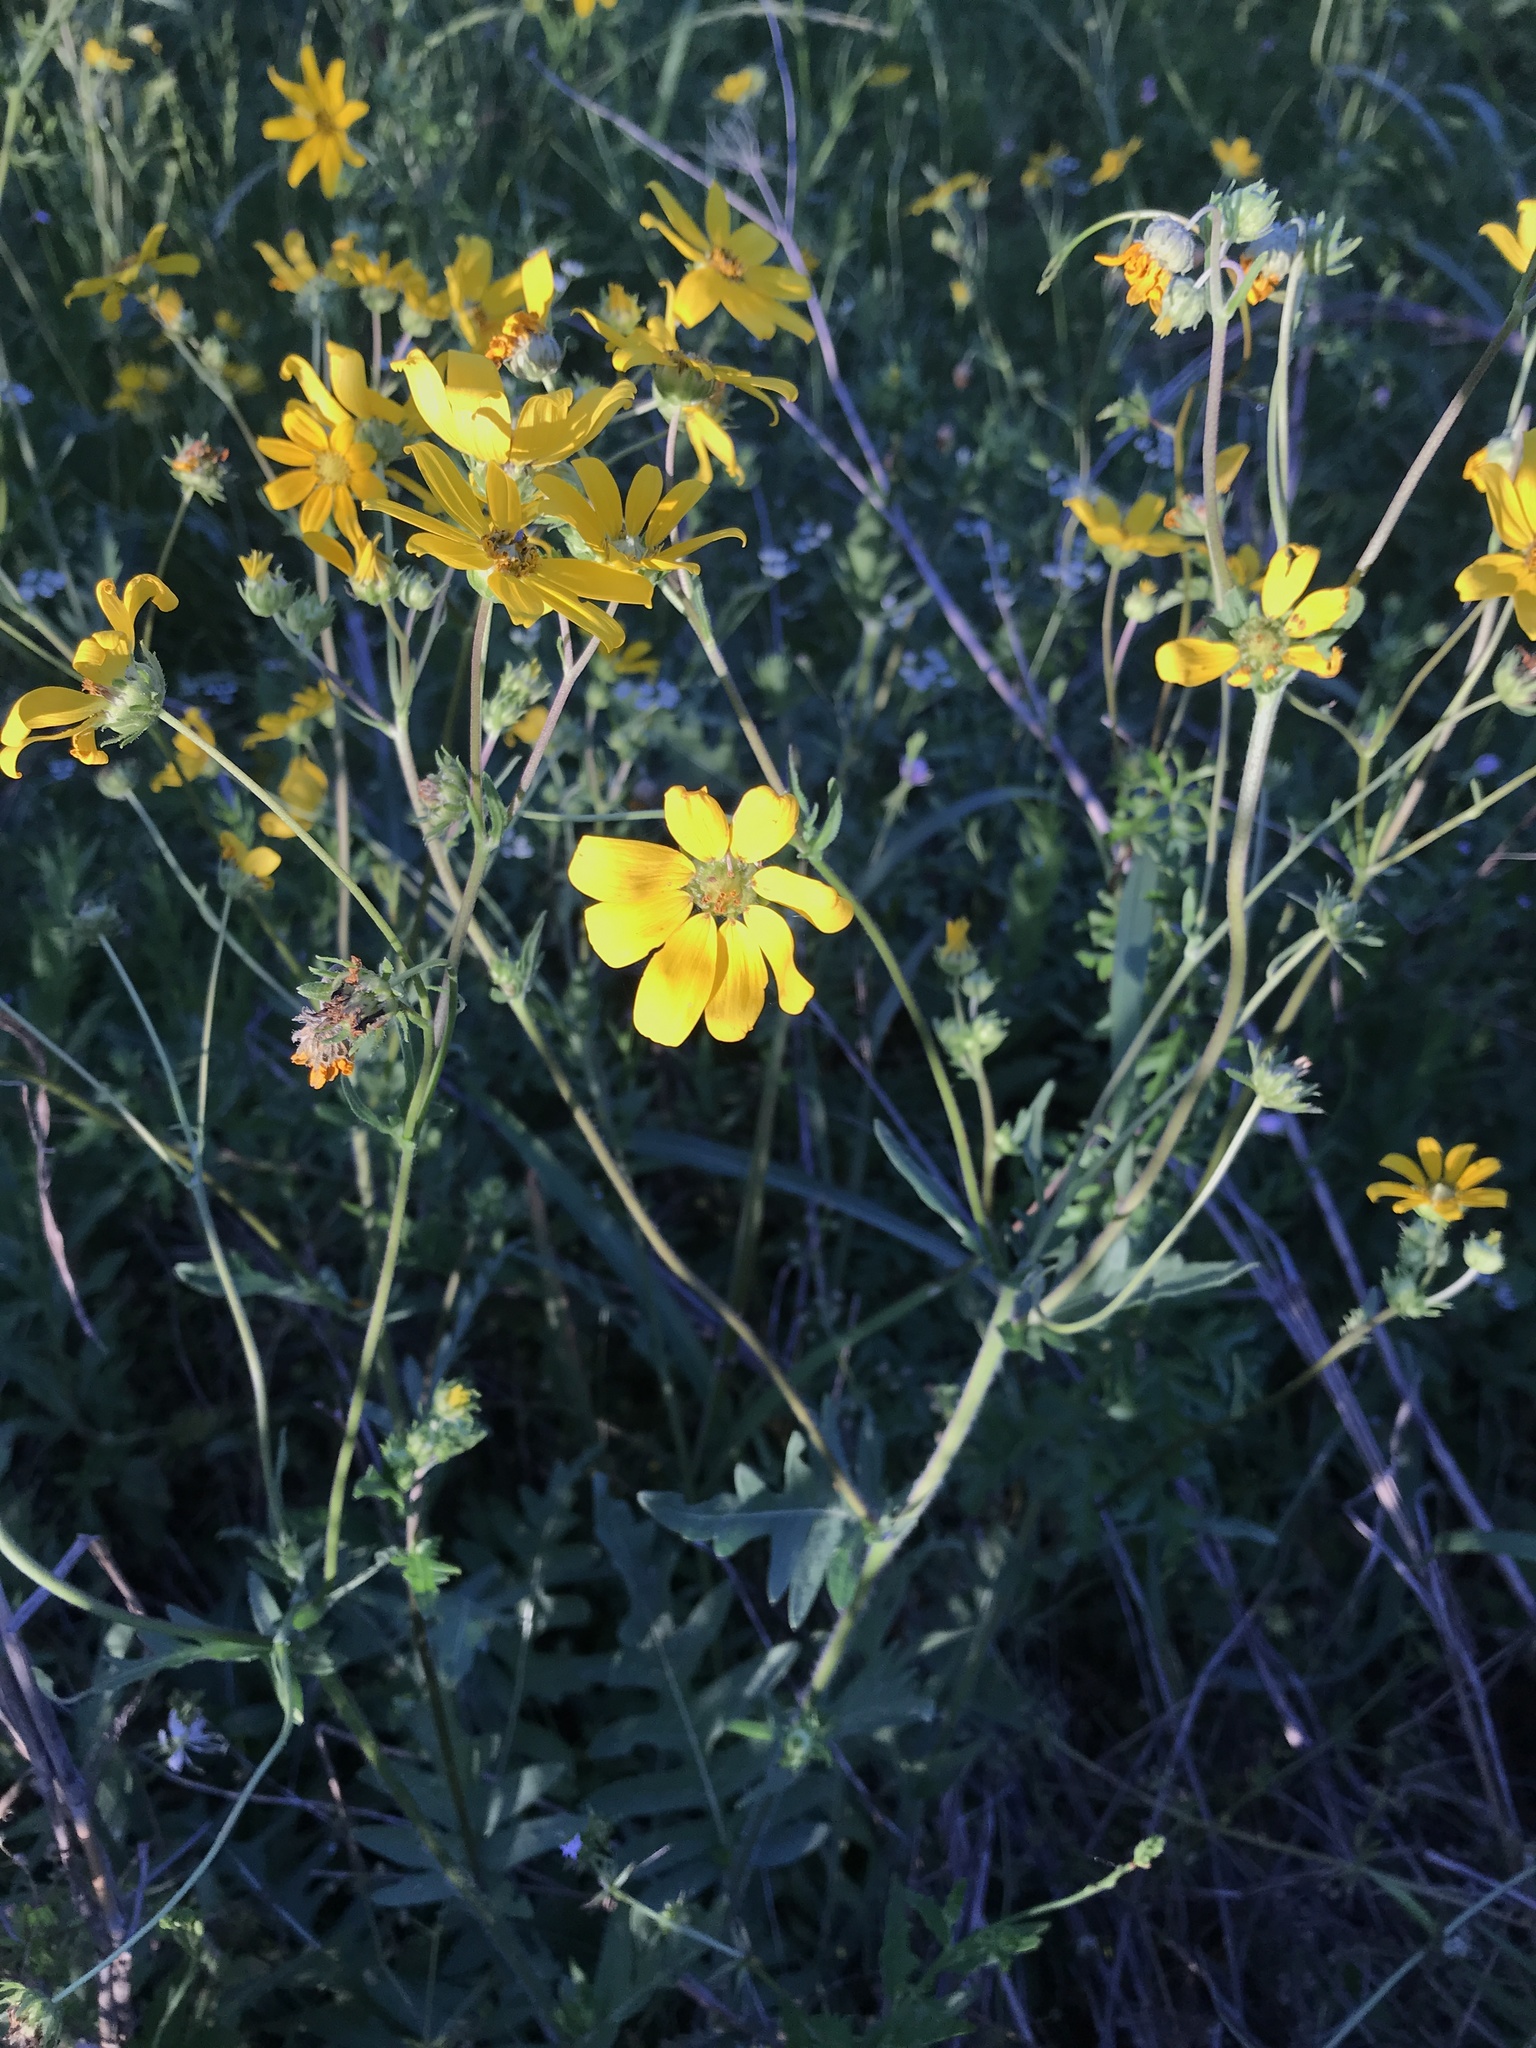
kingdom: Plantae
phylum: Tracheophyta
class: Magnoliopsida
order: Asterales
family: Asteraceae
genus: Engelmannia
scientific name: Engelmannia peristenia
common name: Engelmann's daisy
